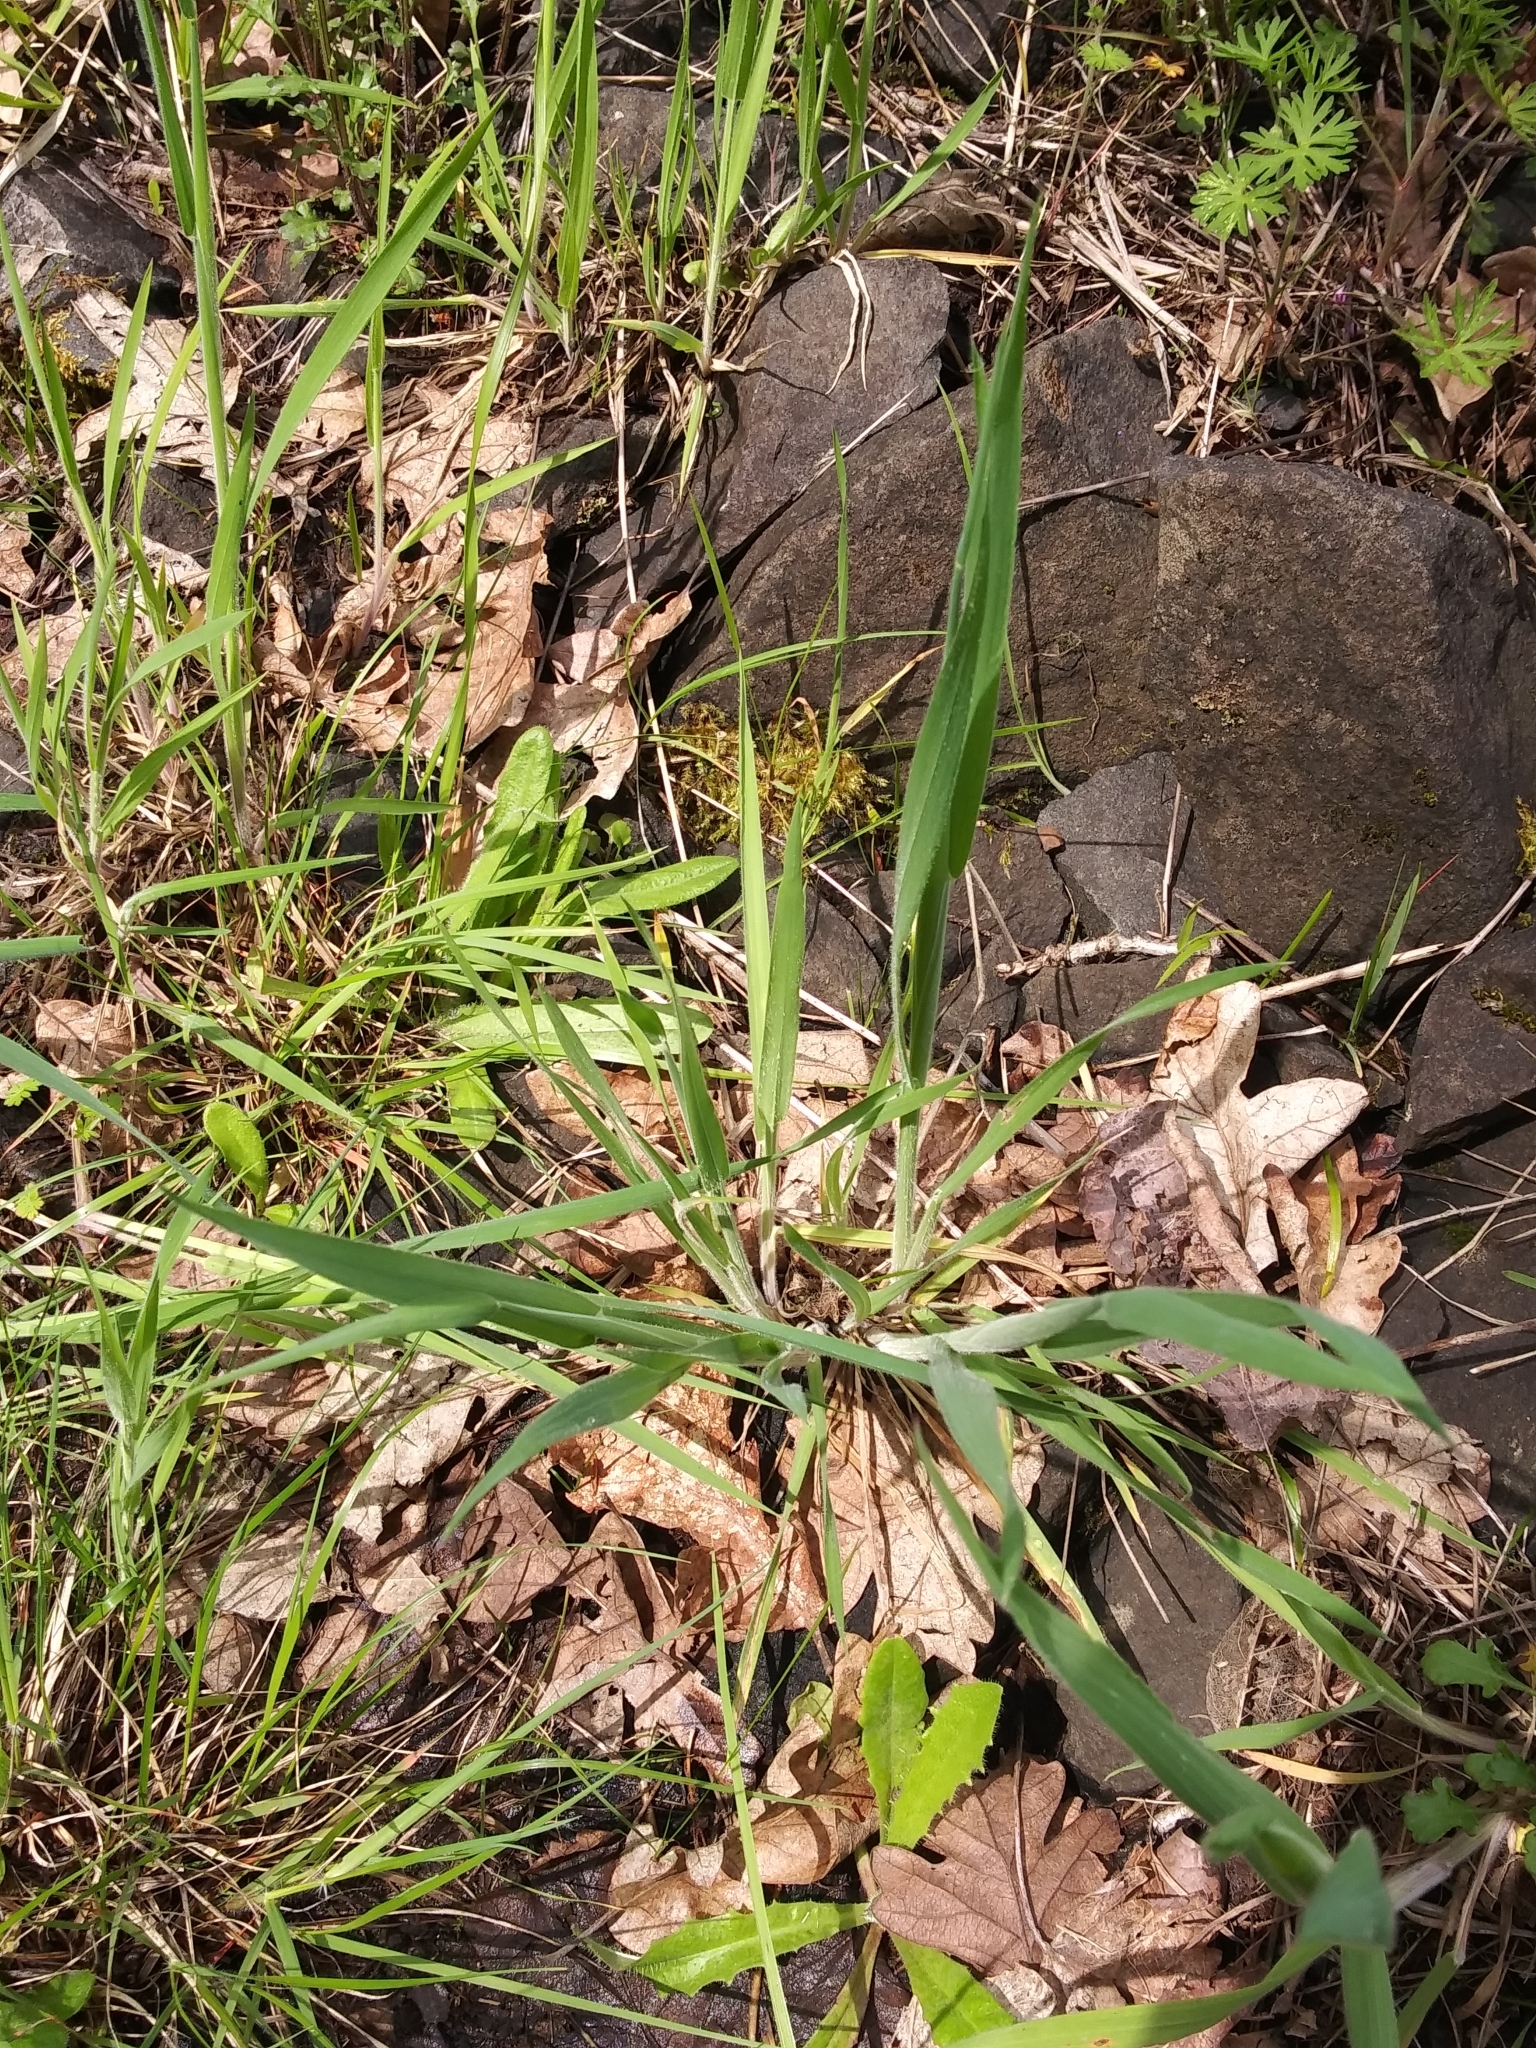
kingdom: Plantae
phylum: Tracheophyta
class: Liliopsida
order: Poales
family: Poaceae
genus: Holcus
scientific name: Holcus lanatus
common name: Yorkshire-fog
